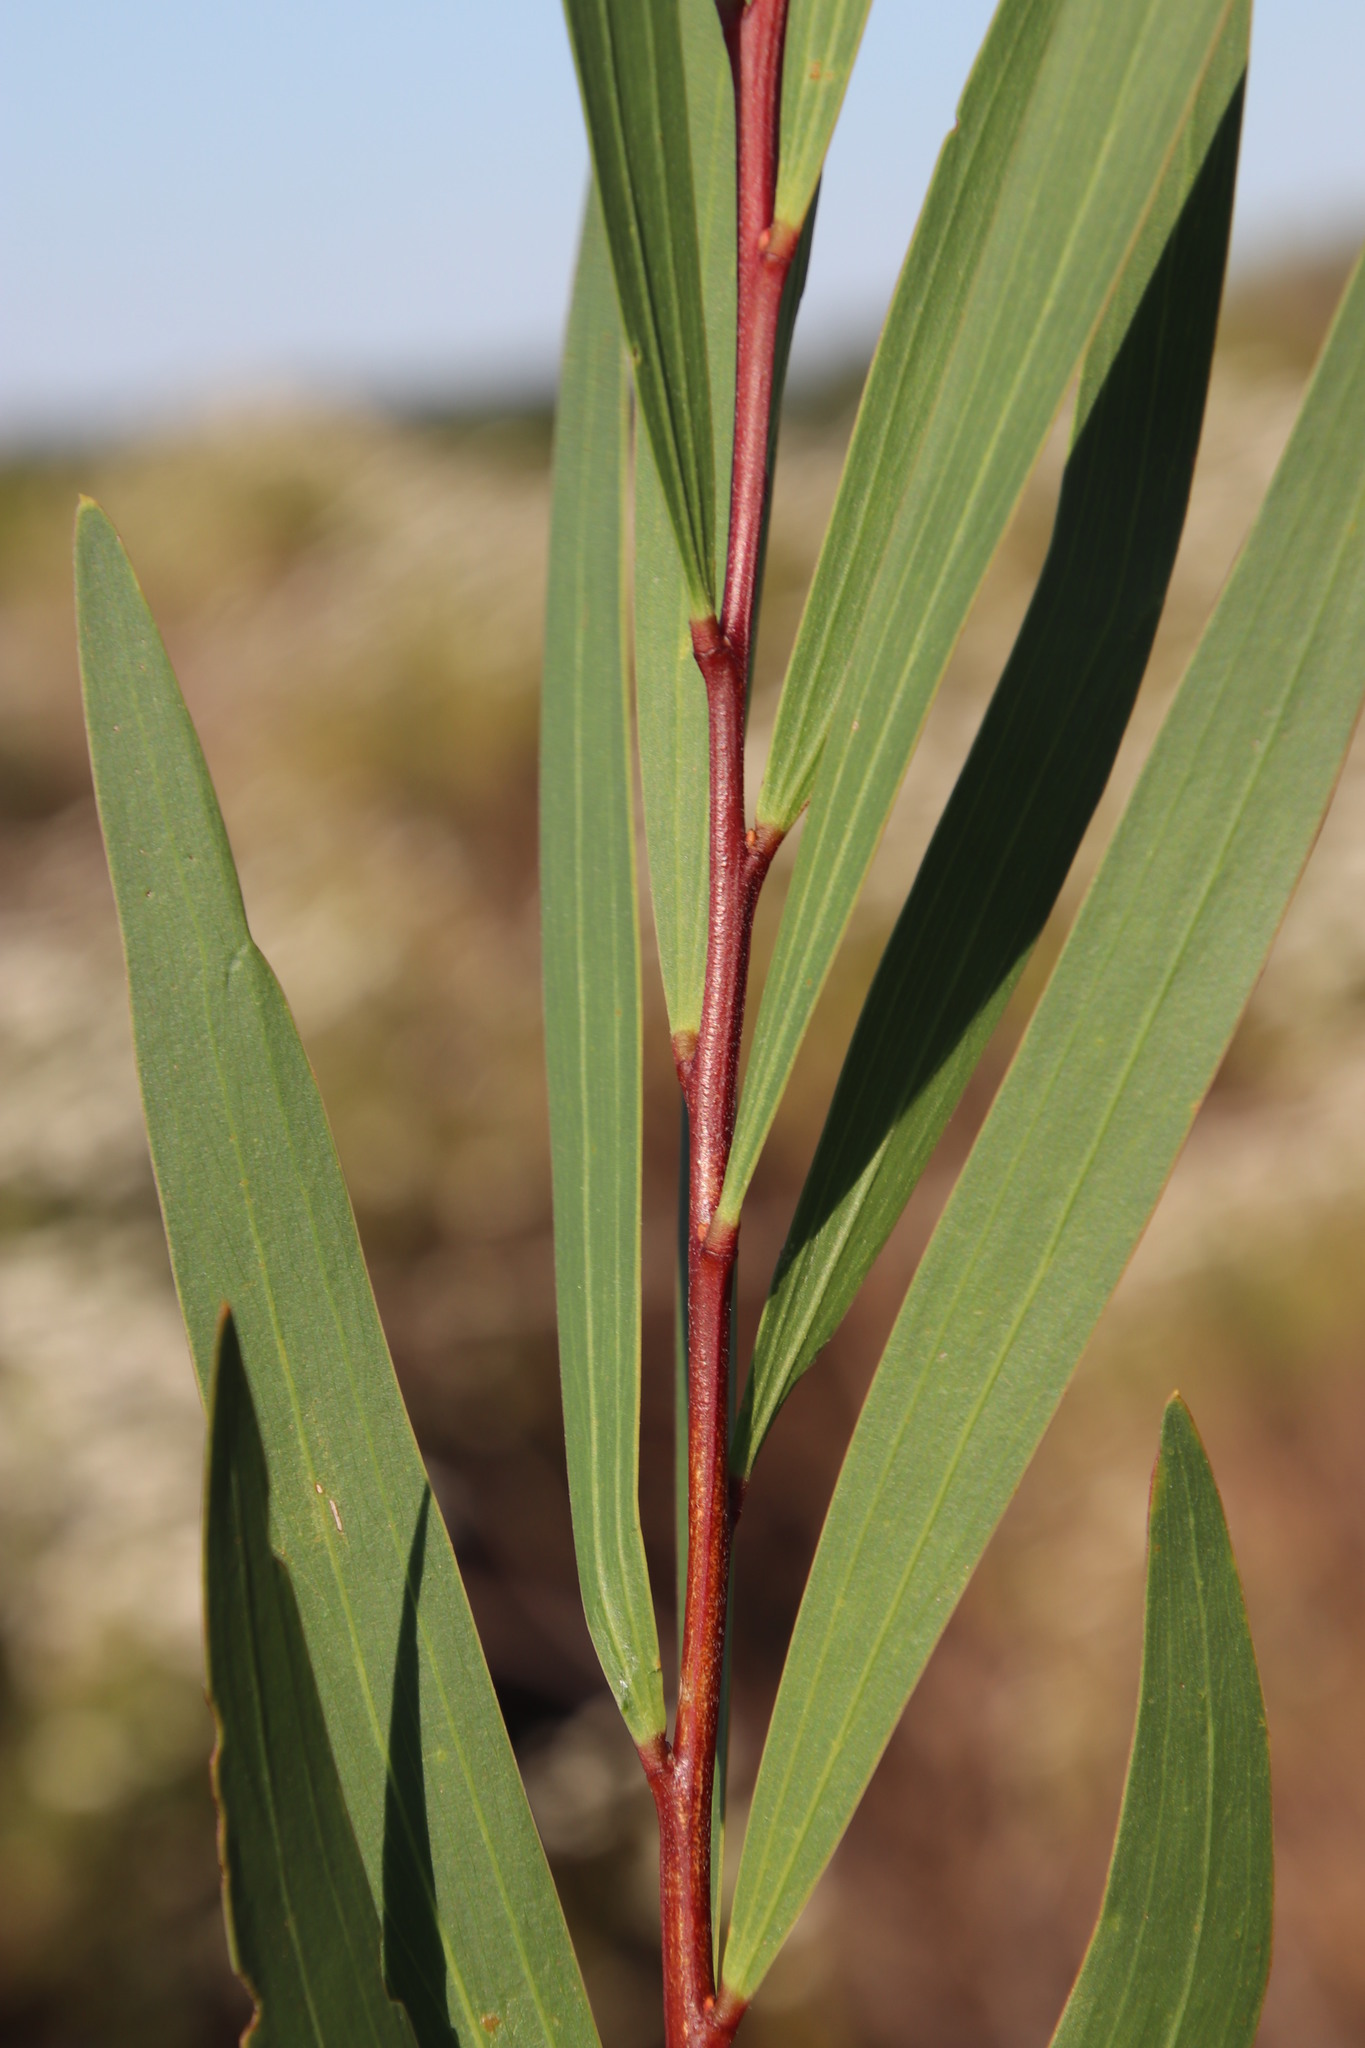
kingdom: Plantae
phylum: Tracheophyta
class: Magnoliopsida
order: Fabales
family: Fabaceae
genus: Acacia
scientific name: Acacia longifolia
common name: Sydney golden wattle
